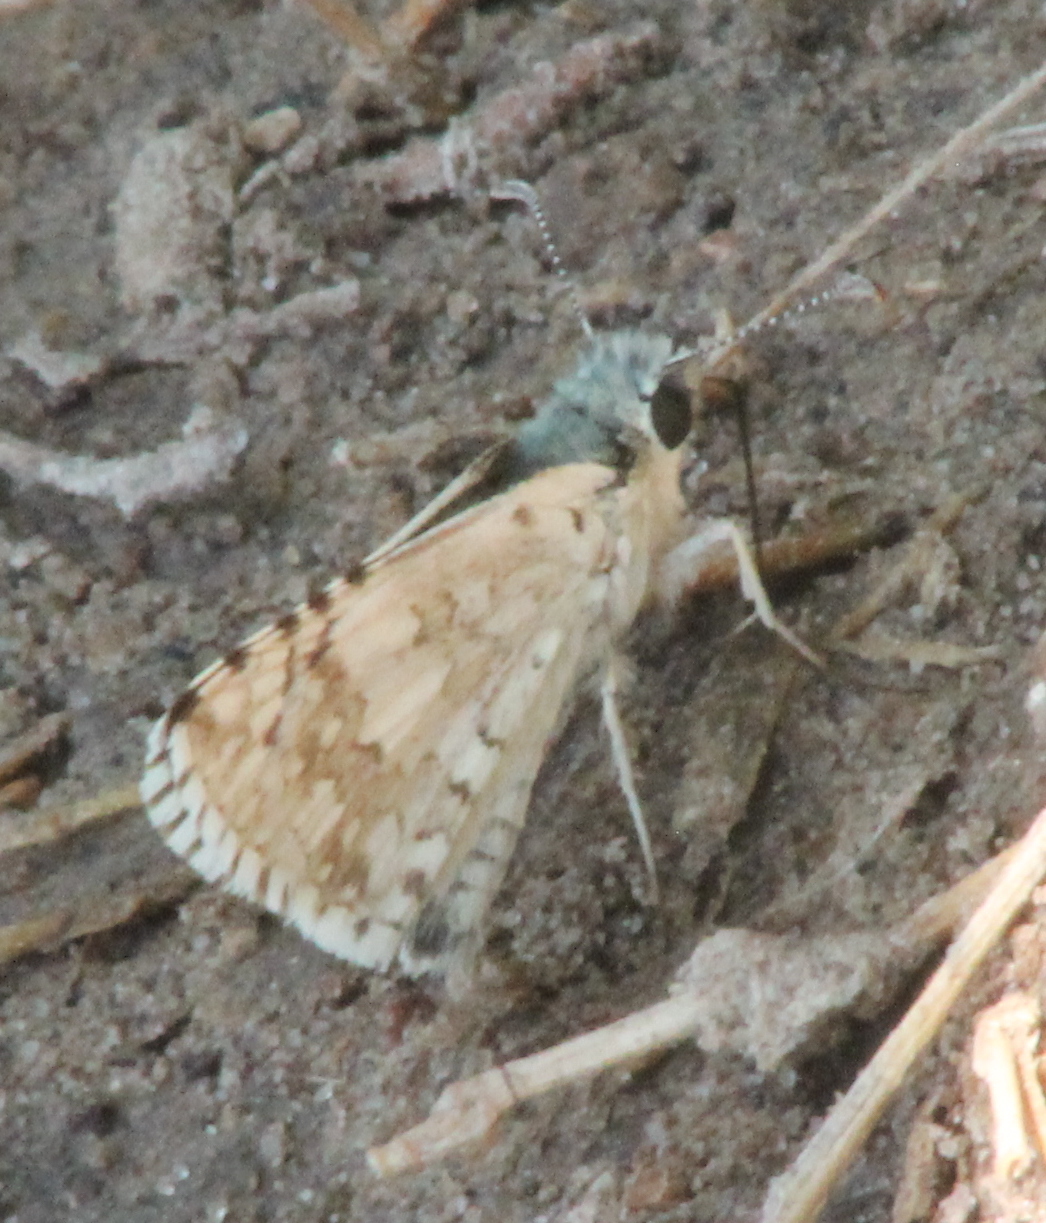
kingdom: Animalia
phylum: Arthropoda
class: Insecta
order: Lepidoptera
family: Hesperiidae
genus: Burnsius
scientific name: Burnsius communis
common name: Common checkered-skipper
